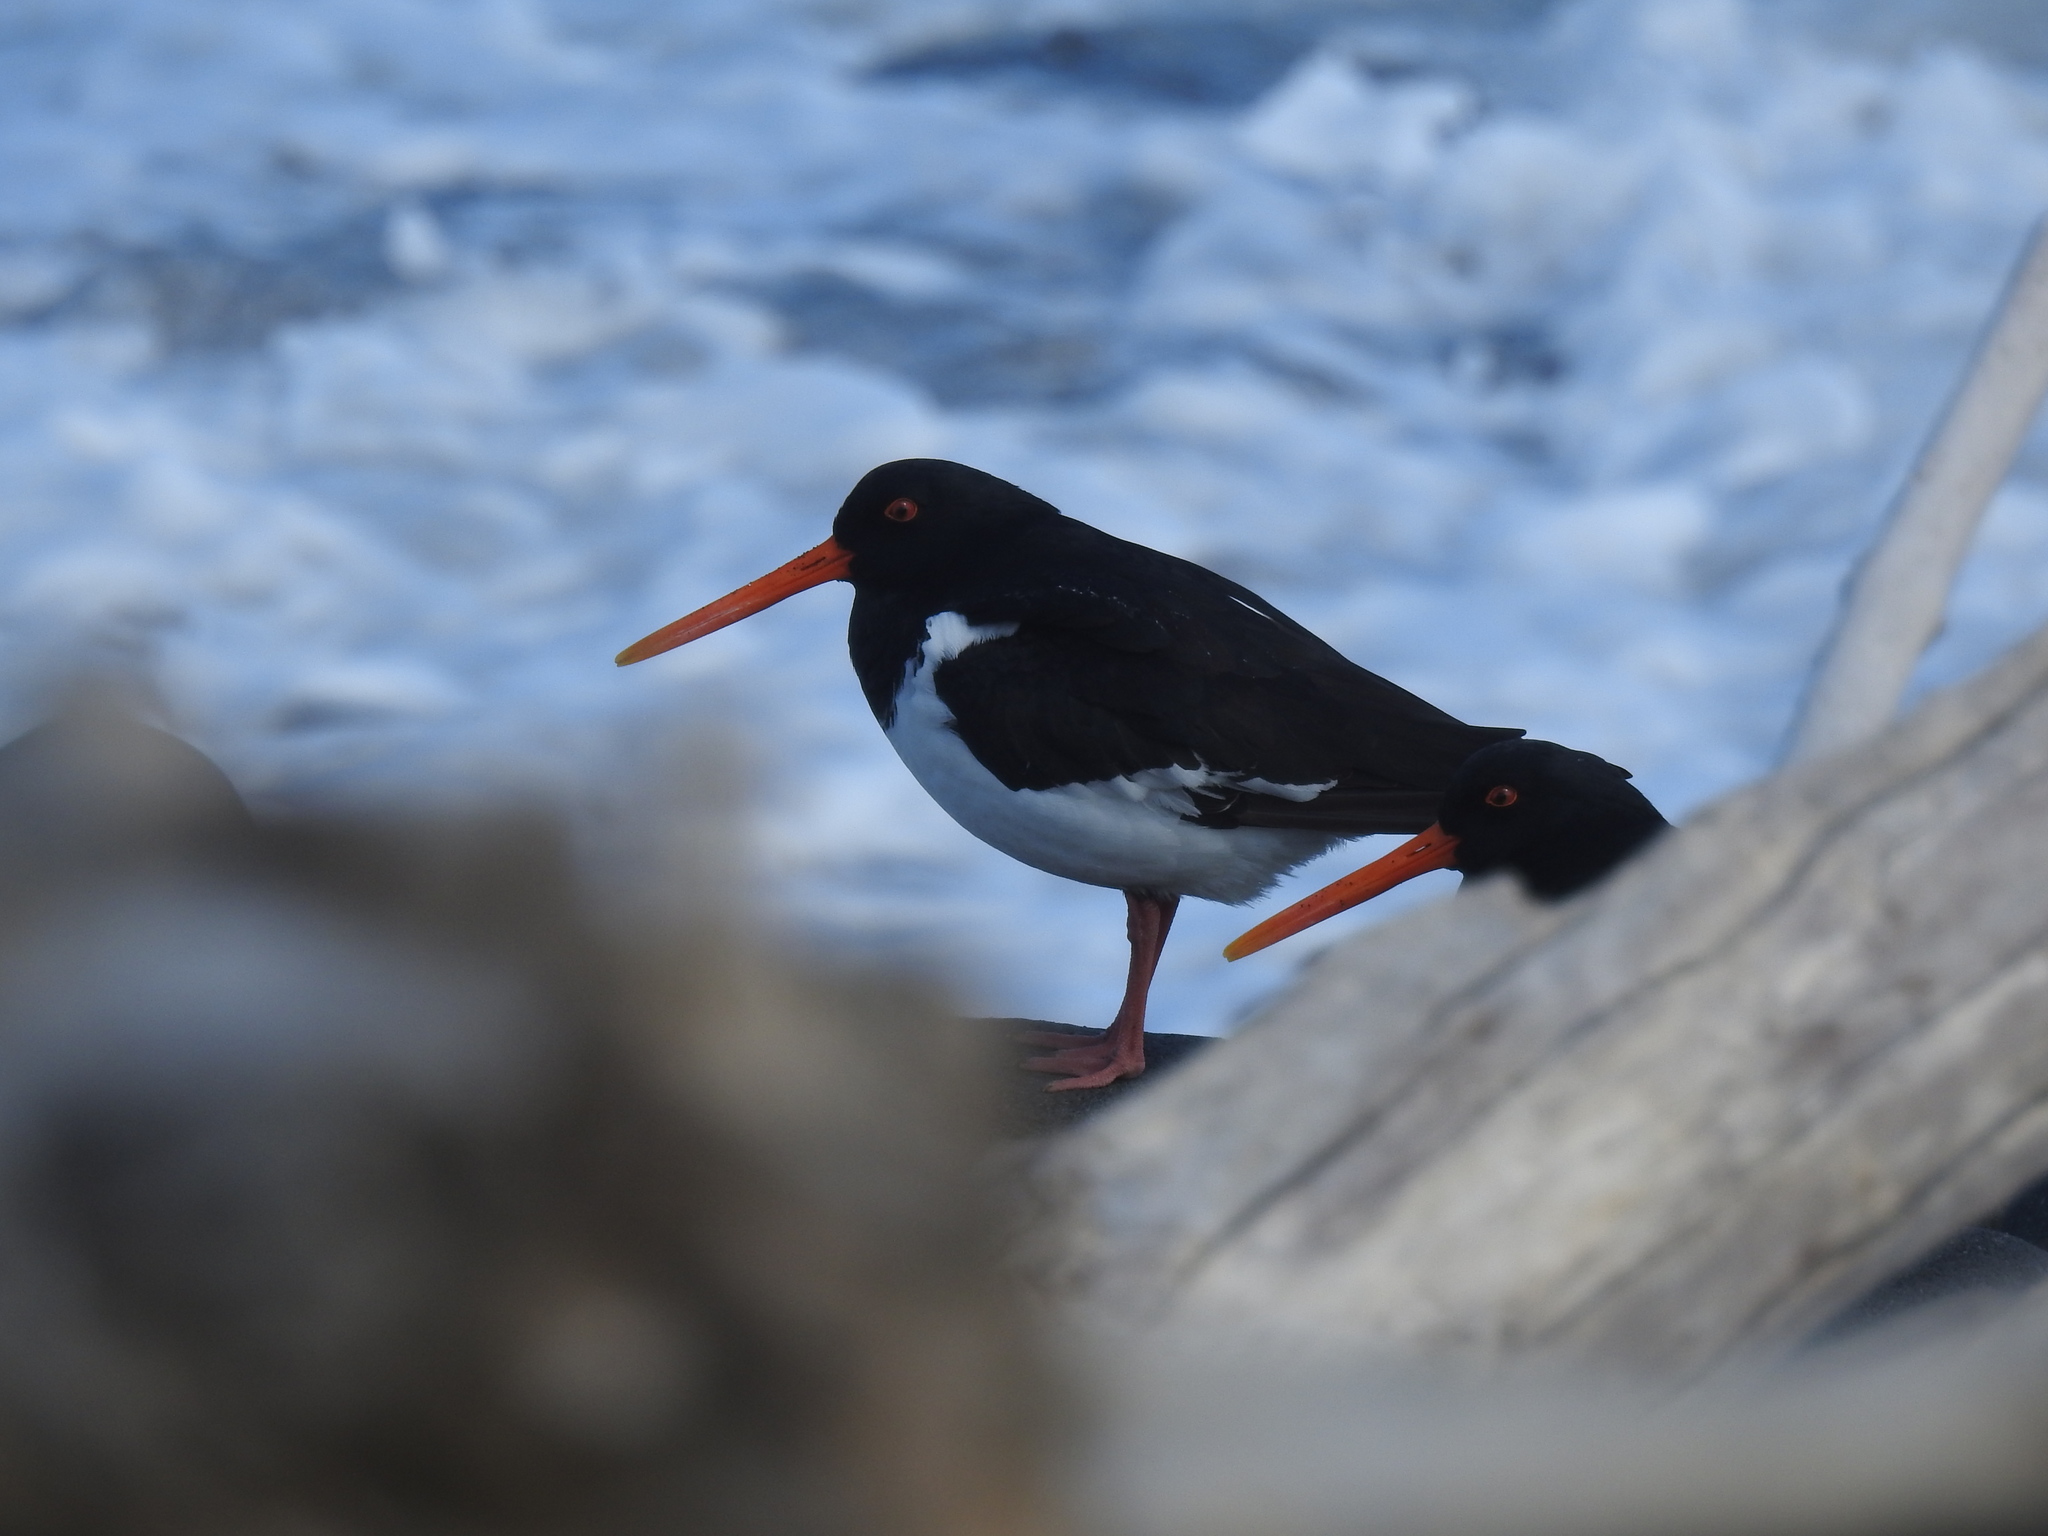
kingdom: Animalia
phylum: Chordata
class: Aves
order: Charadriiformes
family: Haematopodidae
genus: Haematopus
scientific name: Haematopus finschi
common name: South island oystercatcher
